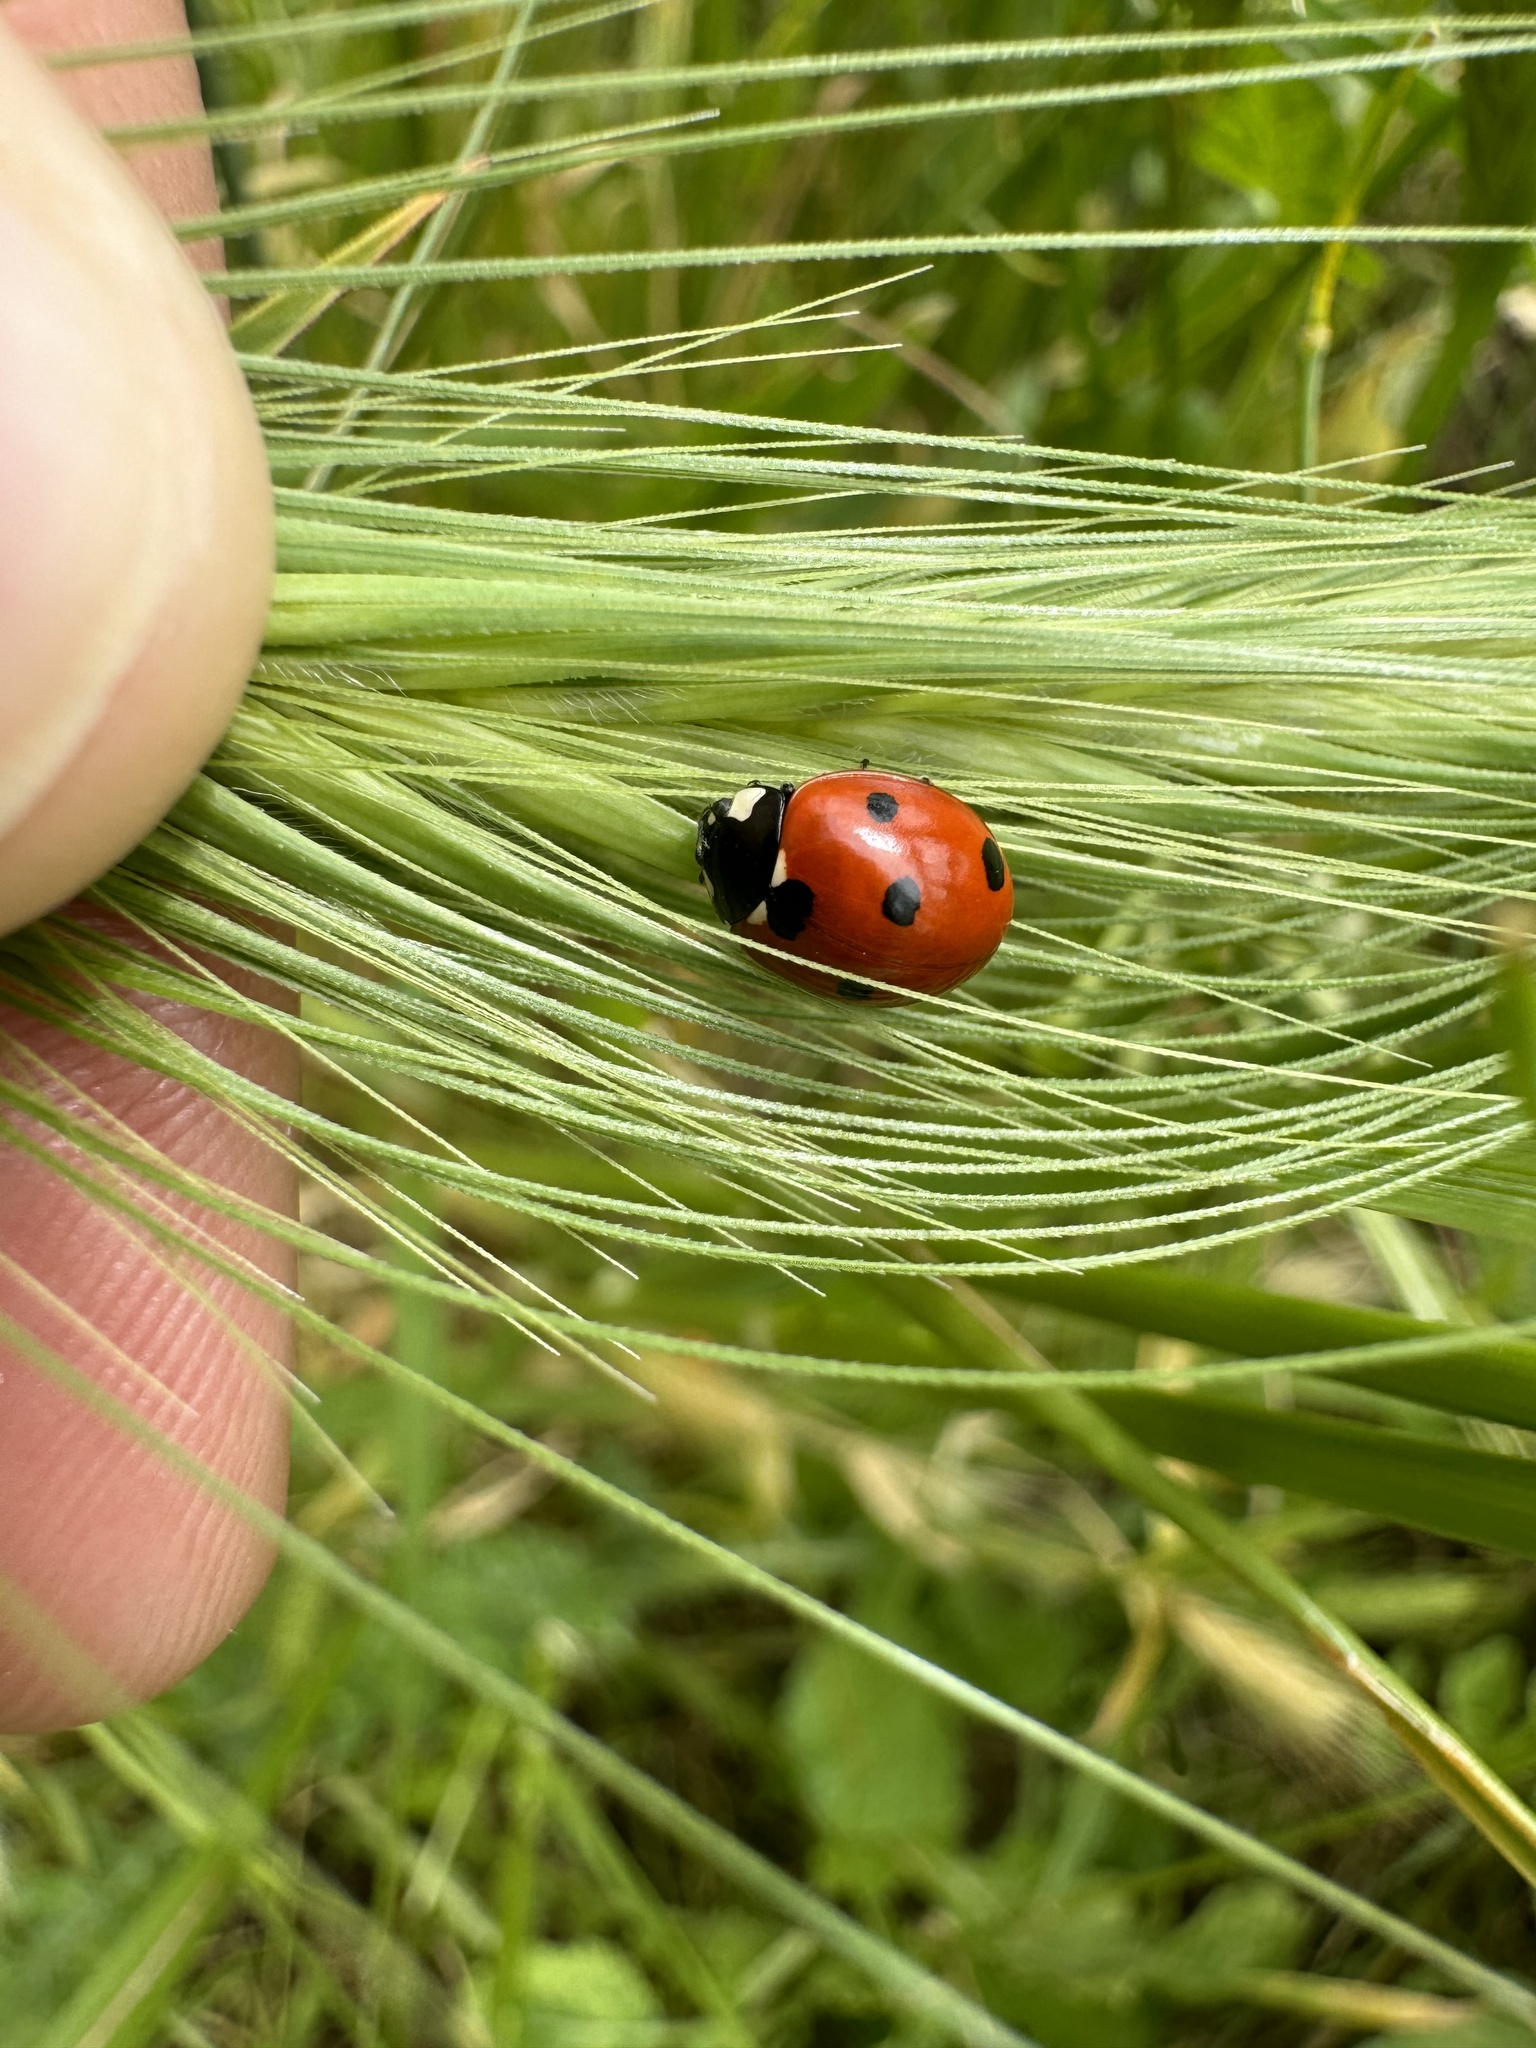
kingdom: Animalia
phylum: Arthropoda
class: Insecta
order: Coleoptera
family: Coccinellidae
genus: Coccinella
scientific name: Coccinella septempunctata
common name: Sevenspotted lady beetle
